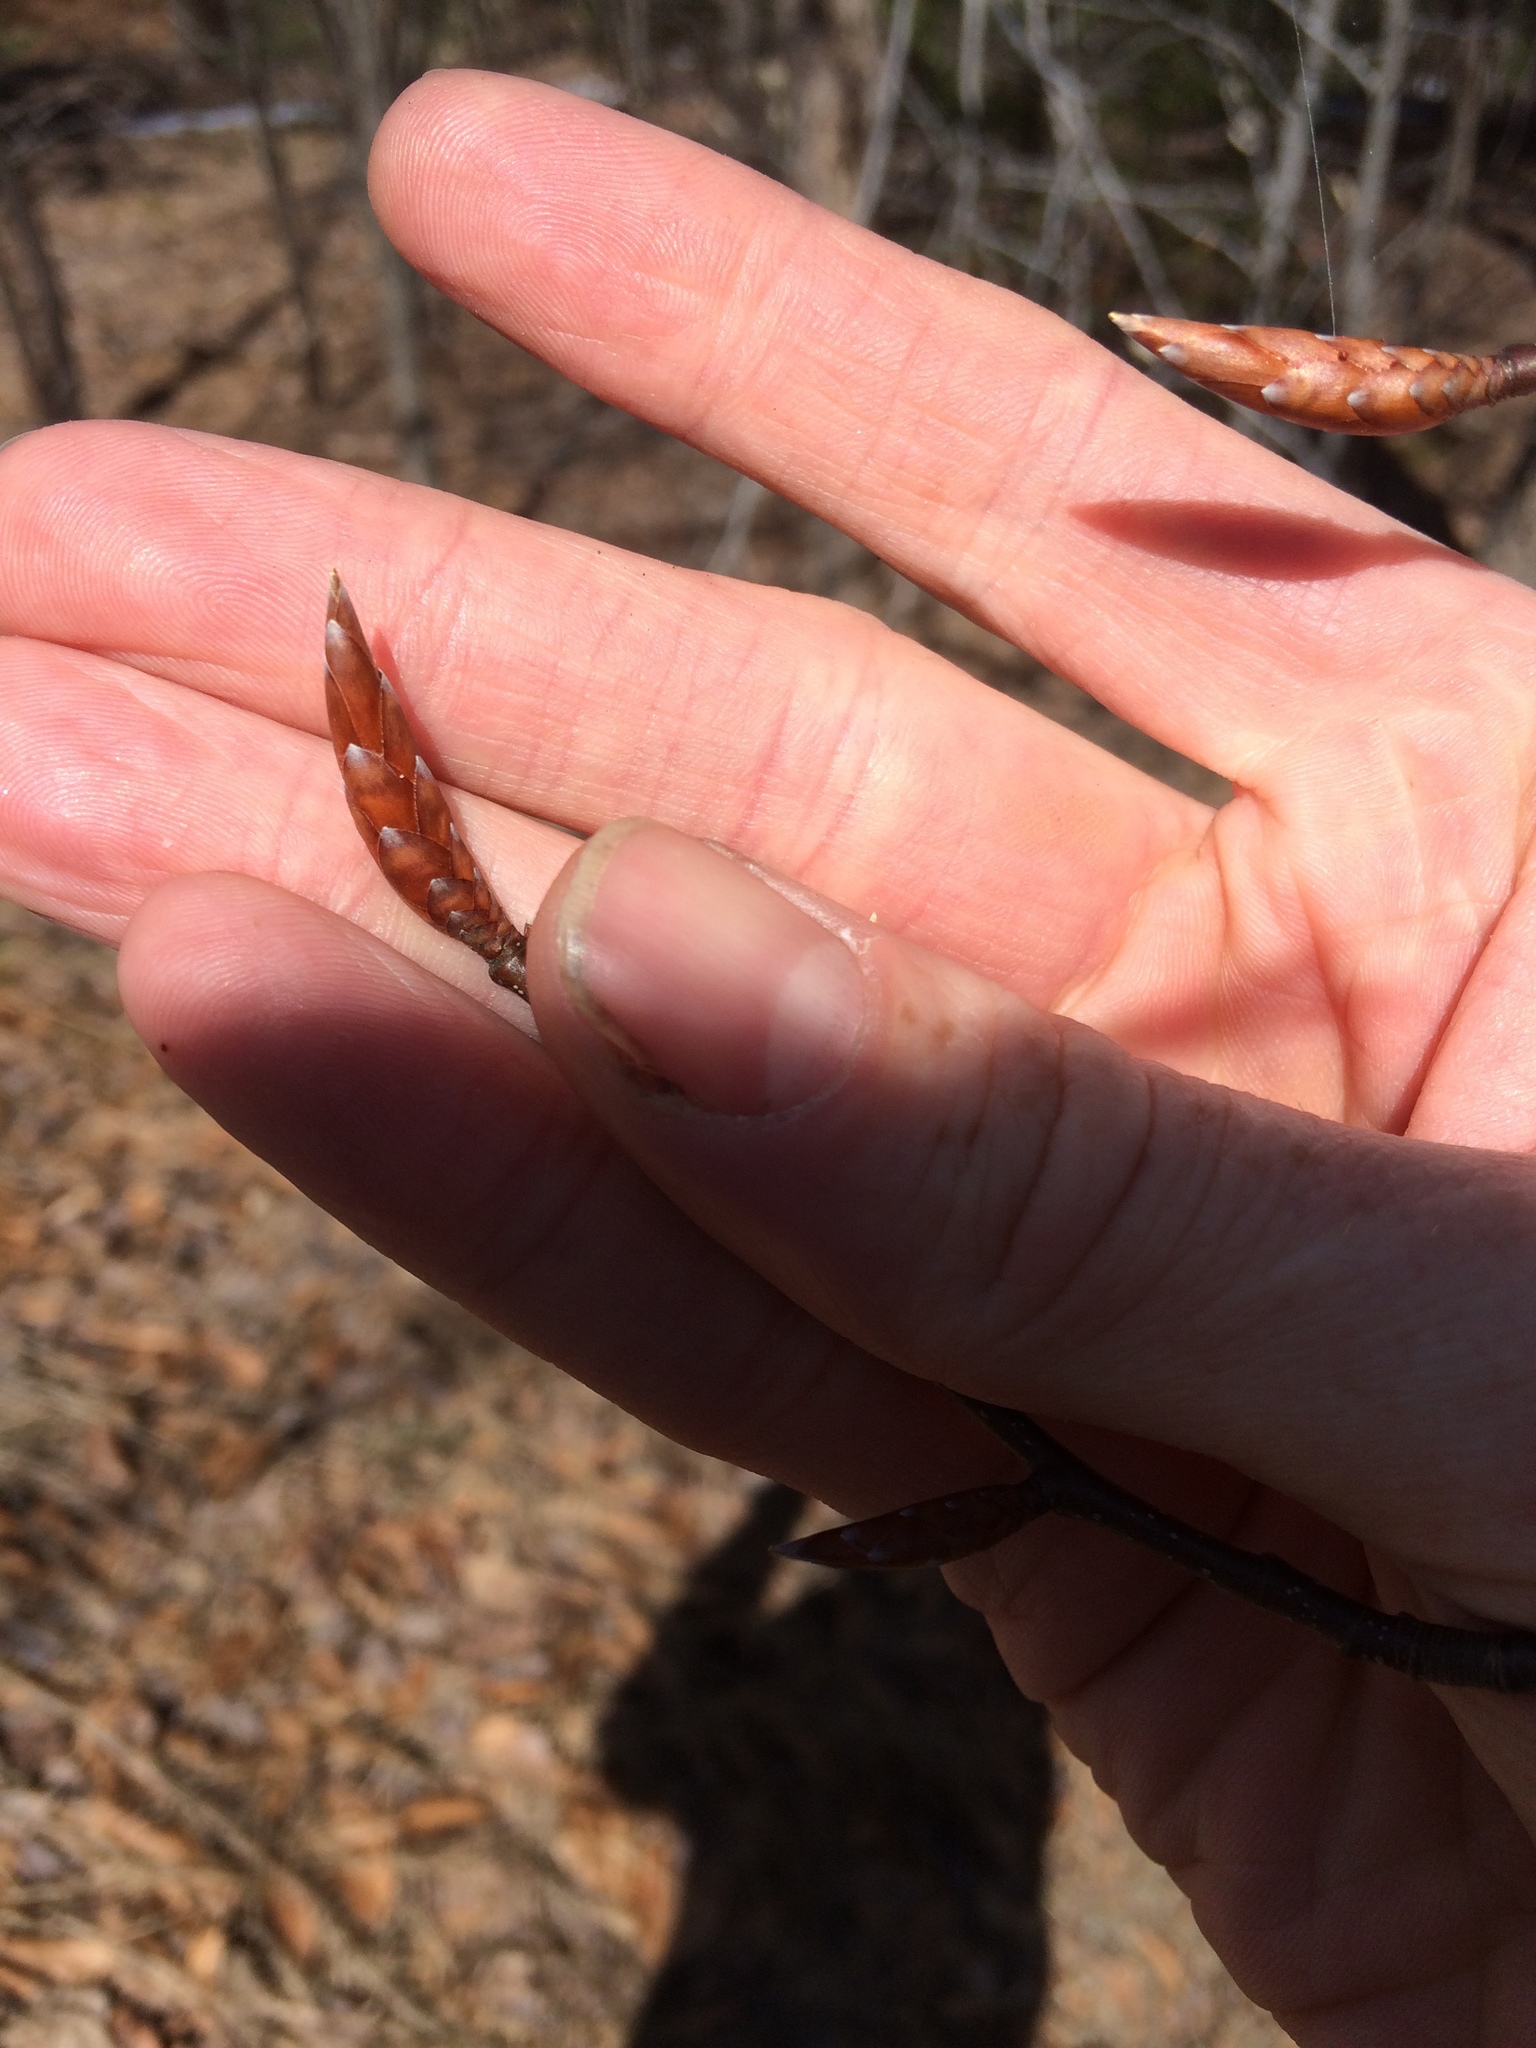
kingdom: Plantae
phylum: Tracheophyta
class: Magnoliopsida
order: Fagales
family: Fagaceae
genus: Fagus
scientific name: Fagus grandifolia
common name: American beech
